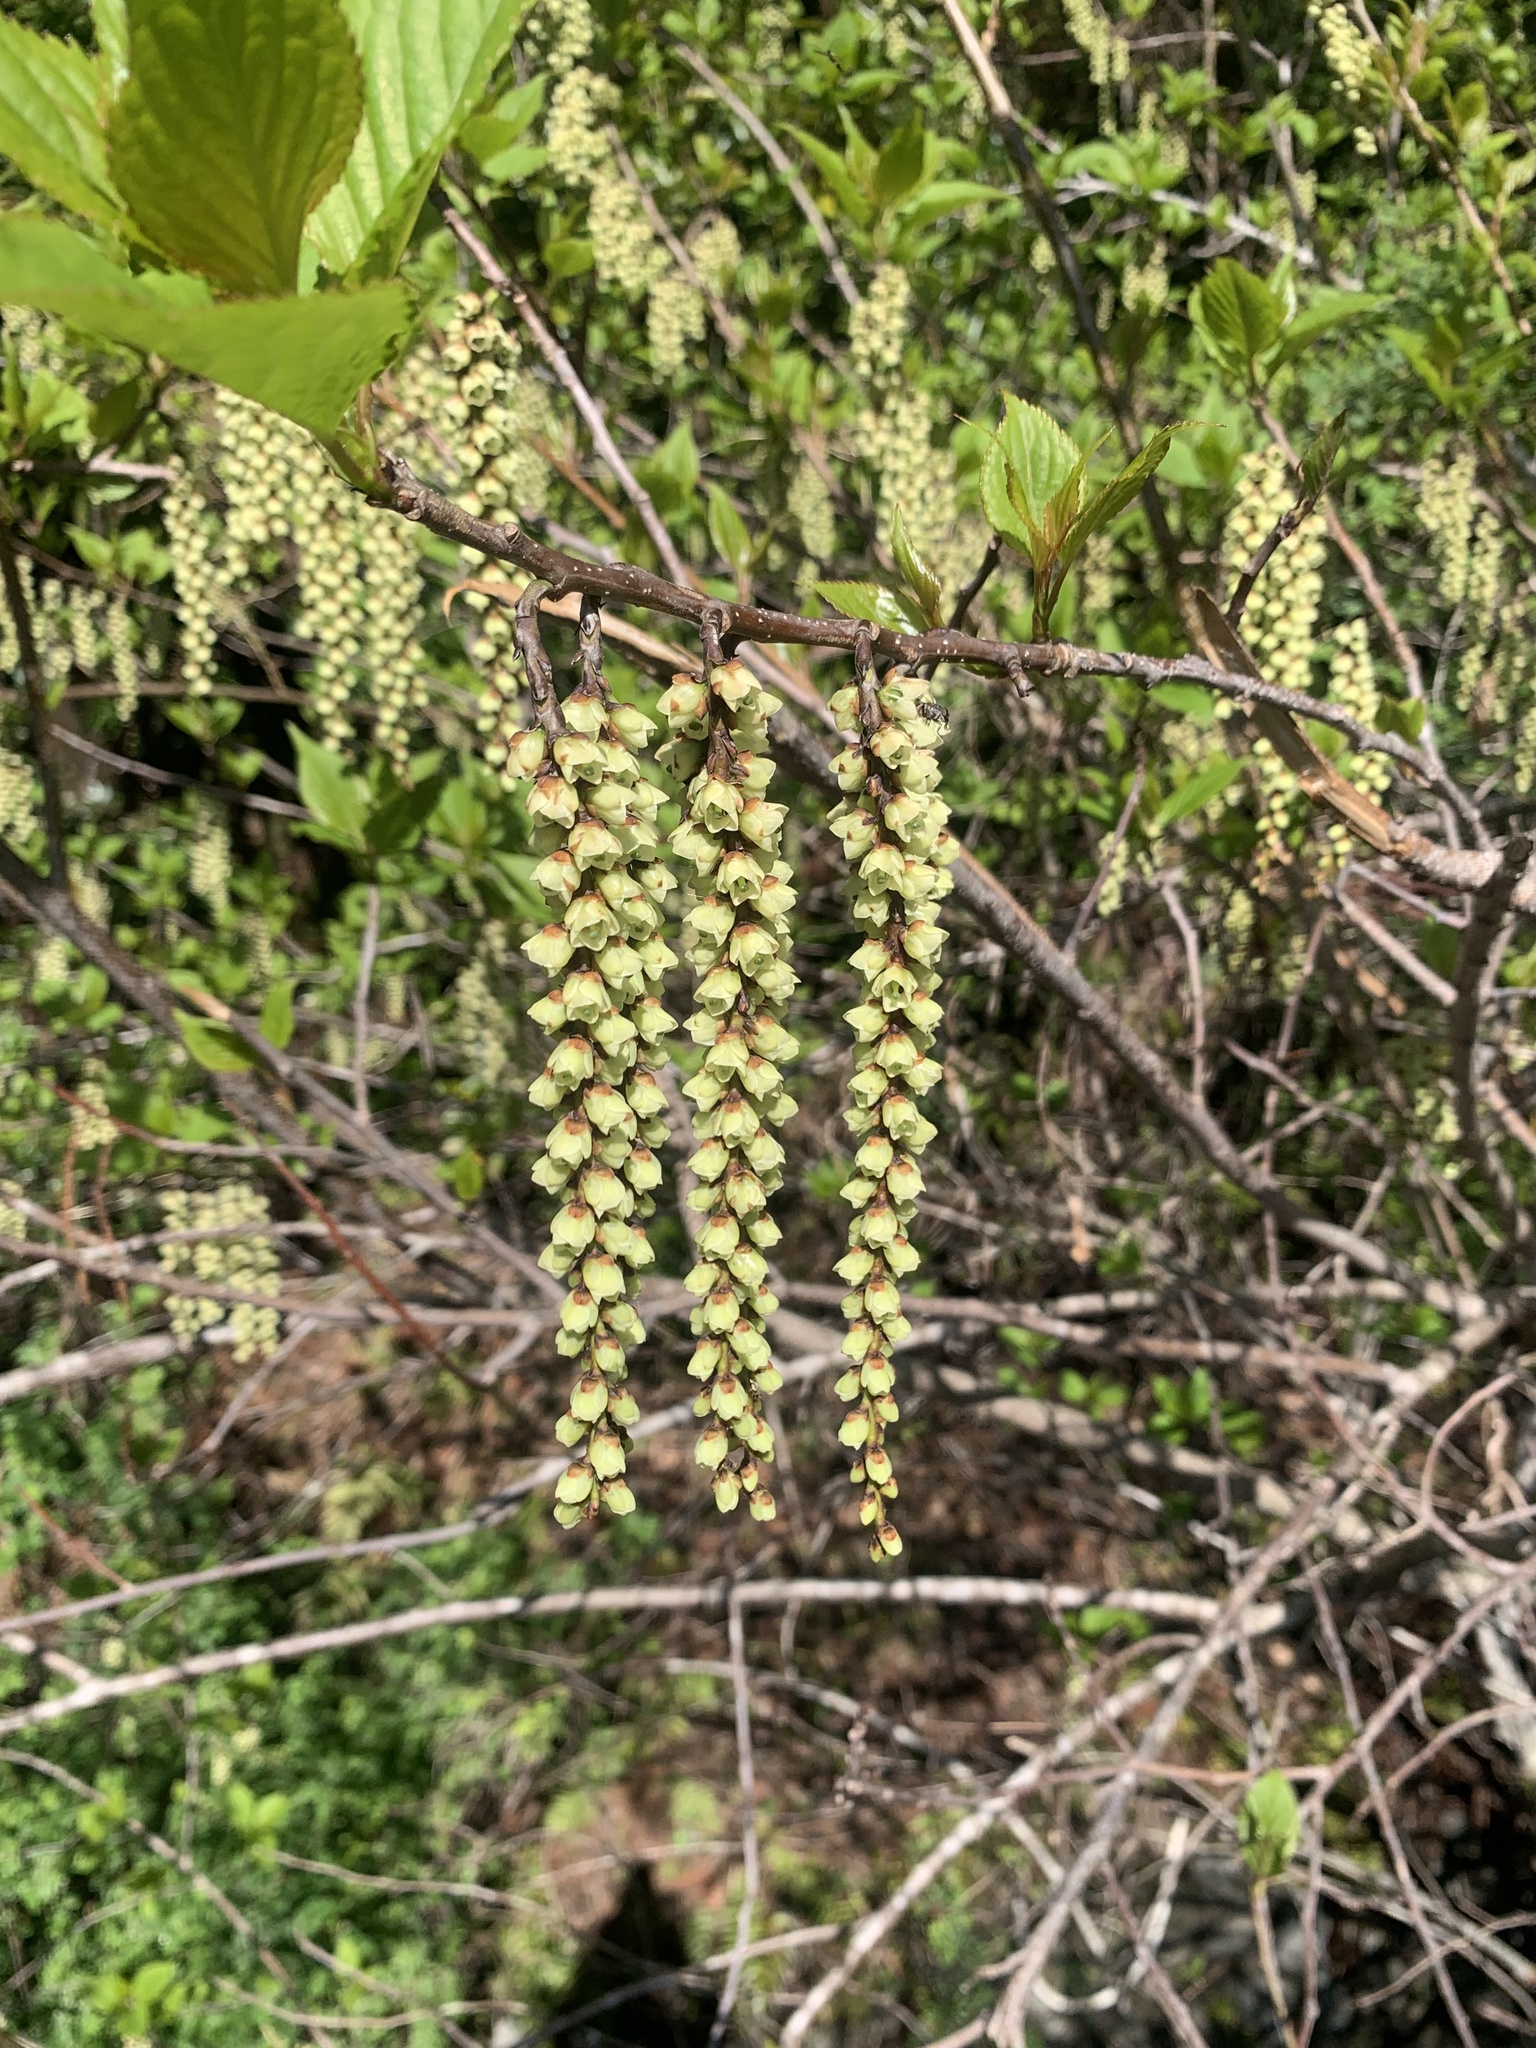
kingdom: Plantae
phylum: Tracheophyta
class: Magnoliopsida
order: Crossosomatales
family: Stachyuraceae
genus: Stachyurus
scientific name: Stachyurus praecox
